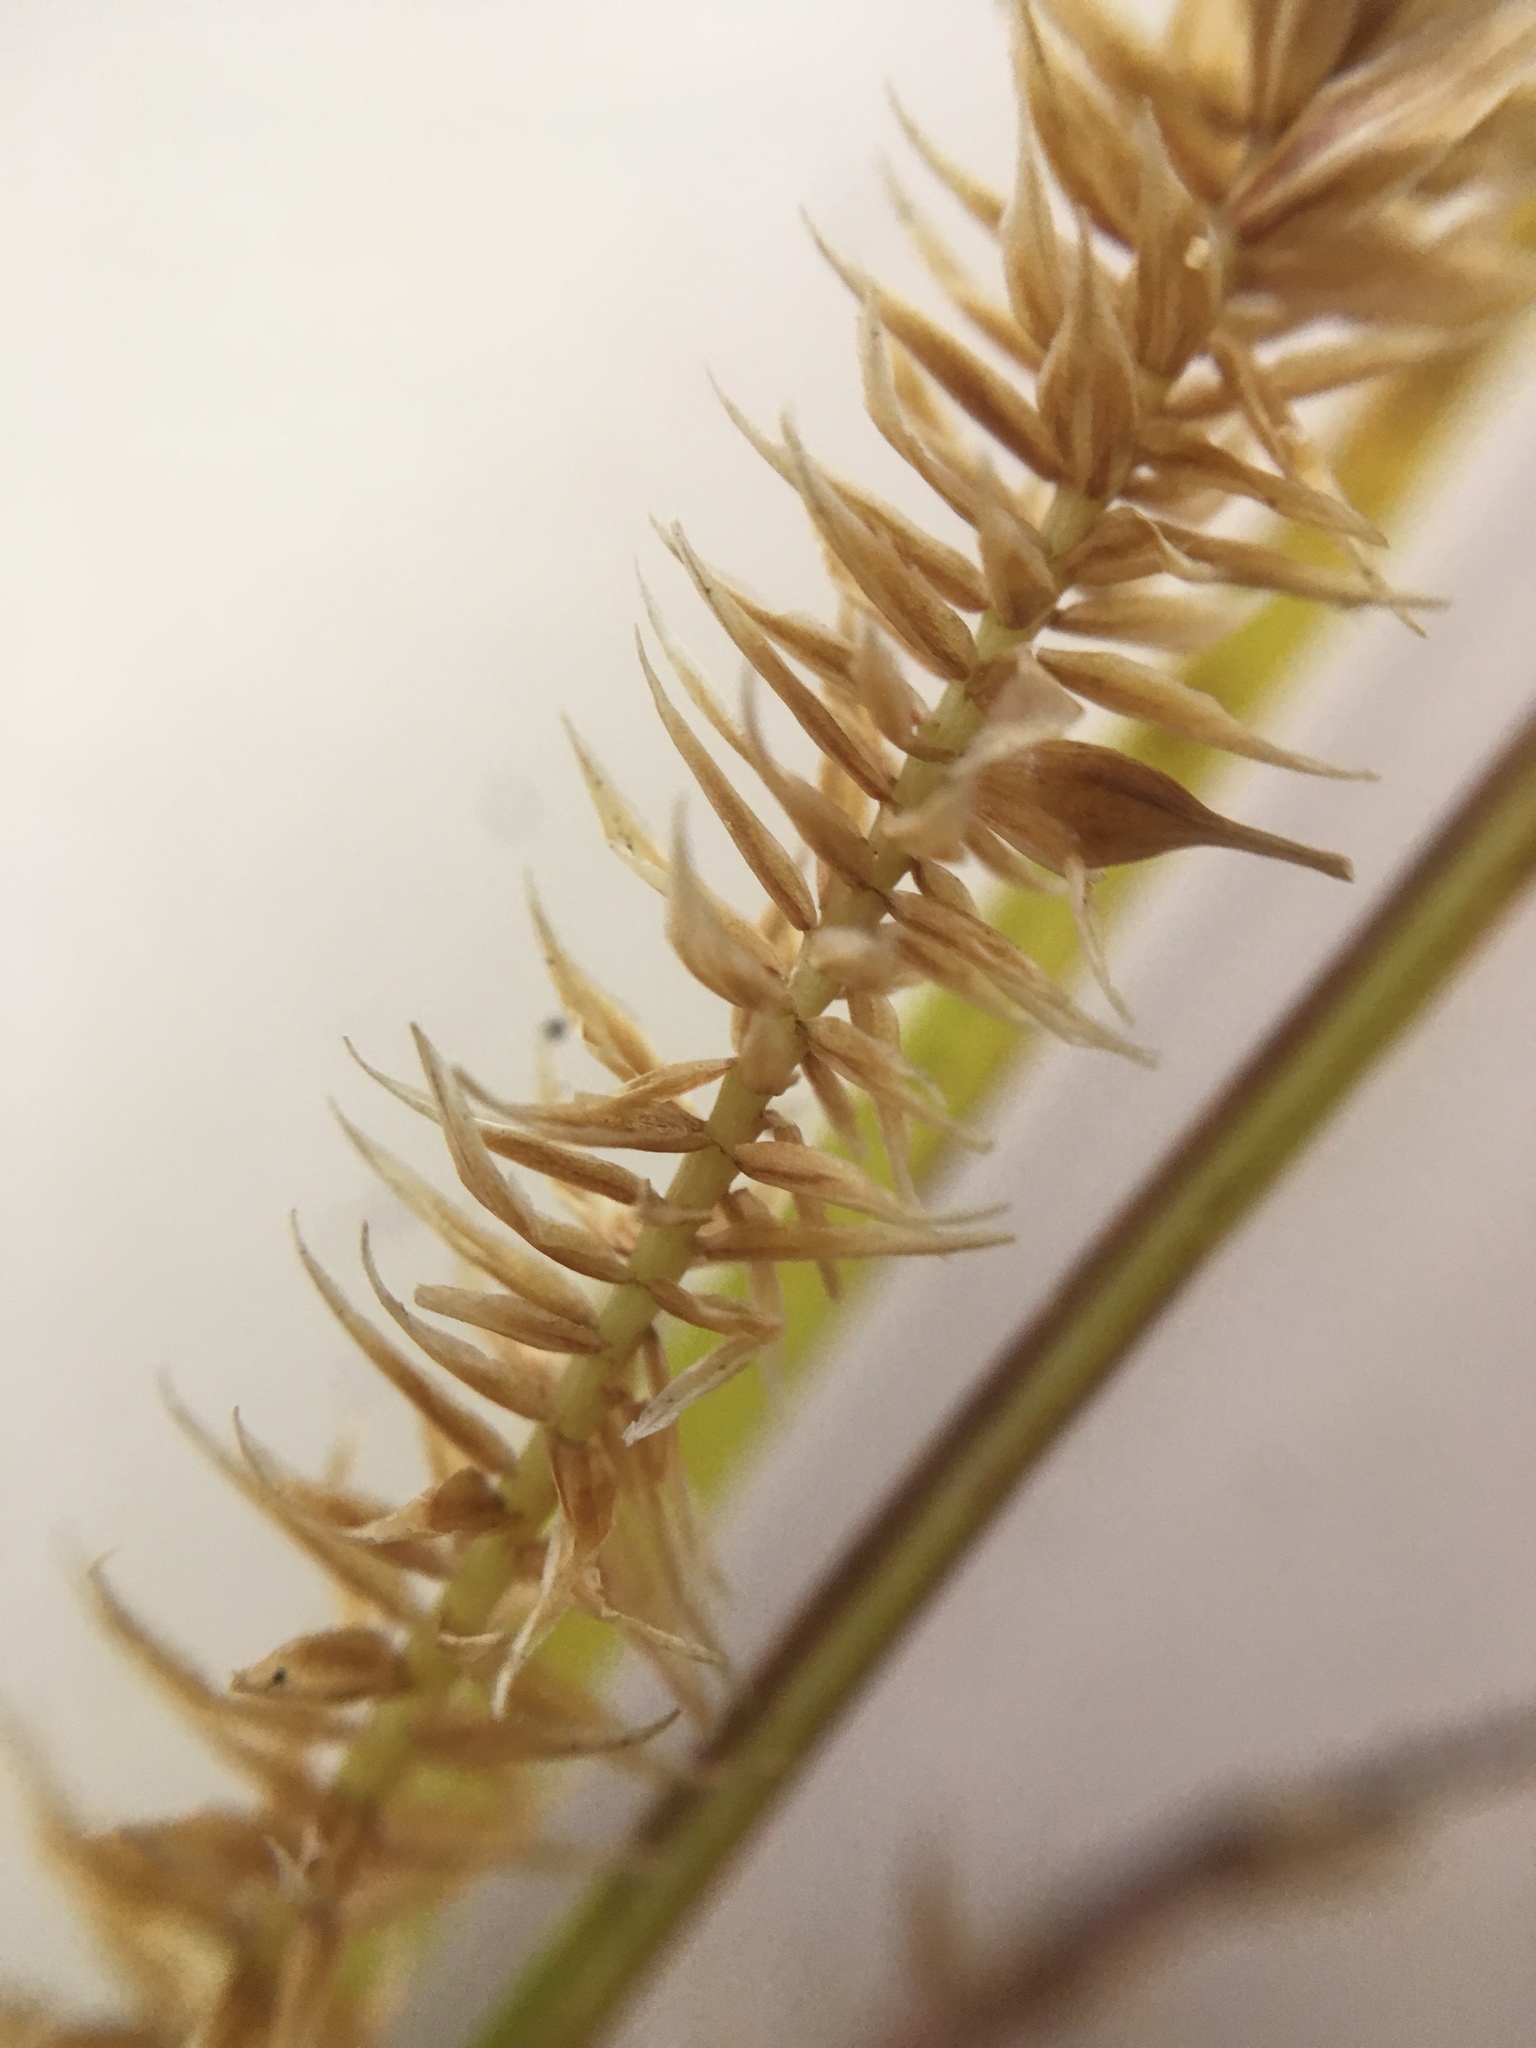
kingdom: Plantae
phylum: Tracheophyta
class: Liliopsida
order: Poales
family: Cyperaceae
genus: Carex
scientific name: Carex utriculata
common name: Beaked sedge
